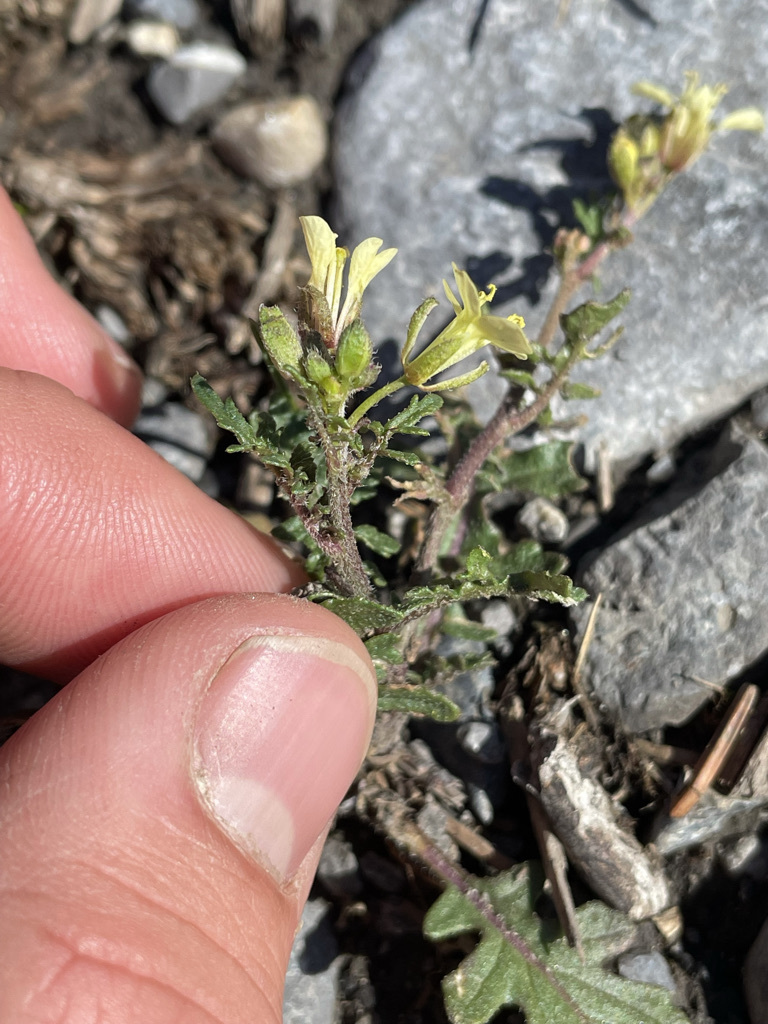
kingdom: Plantae
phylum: Tracheophyta
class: Magnoliopsida
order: Brassicales
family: Brassicaceae
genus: Erucastrum
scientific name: Erucastrum gallicum
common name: Hairy rocket
